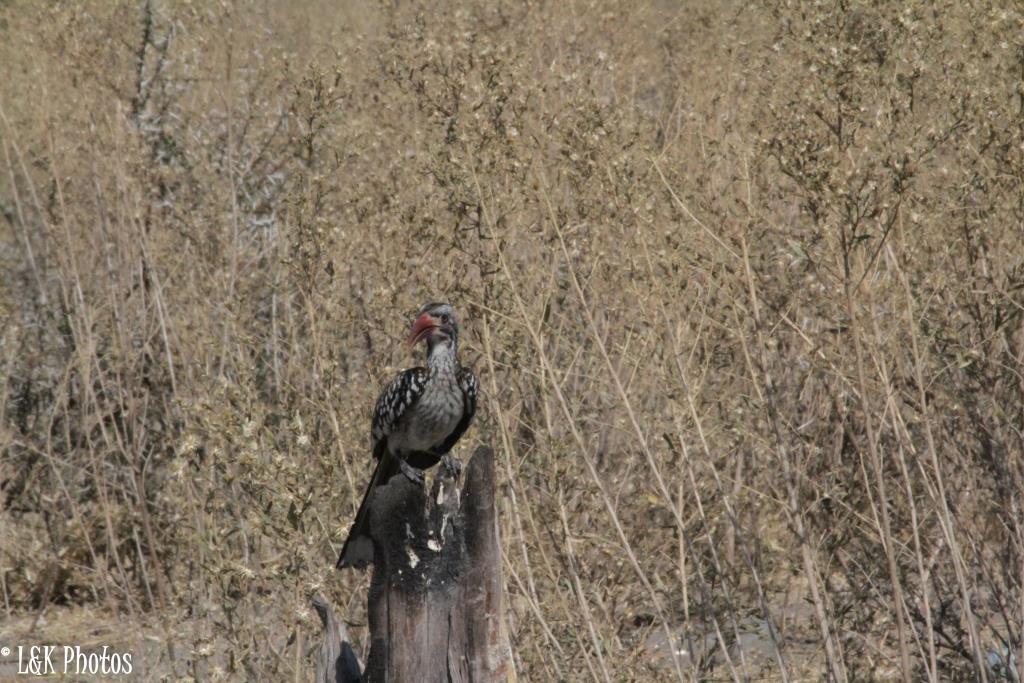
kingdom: Animalia
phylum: Chordata
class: Aves
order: Bucerotiformes
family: Bucerotidae
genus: Tockus
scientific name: Tockus rufirostris
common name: Southern red-billed hornbill
